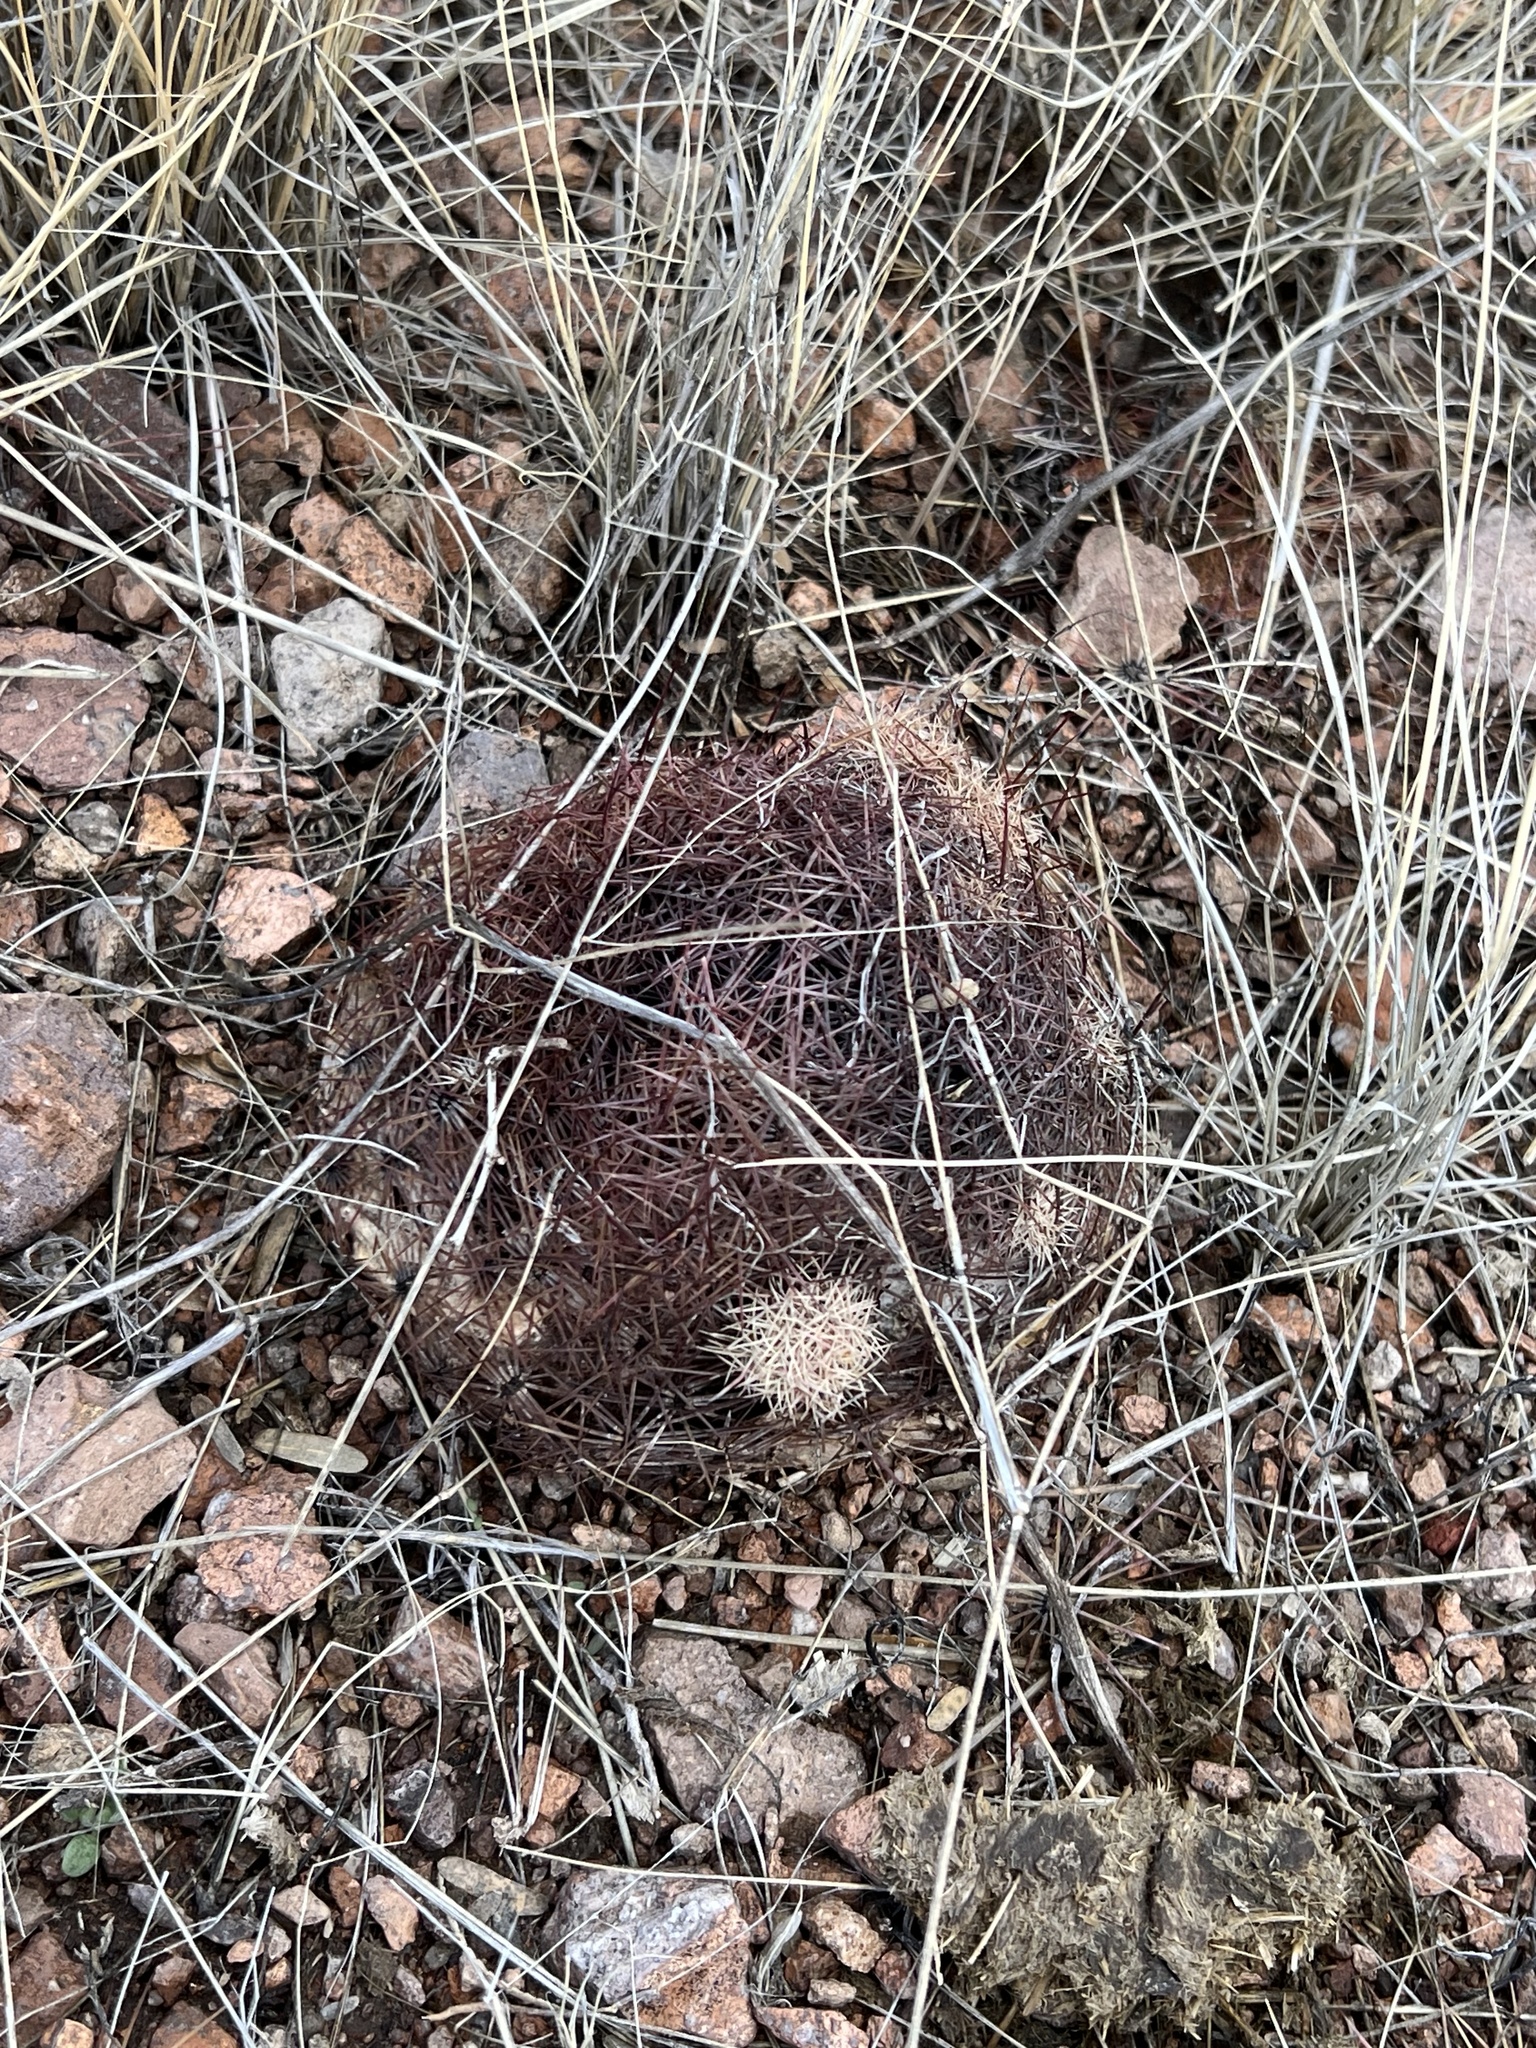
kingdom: Plantae
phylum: Tracheophyta
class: Magnoliopsida
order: Caryophyllales
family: Cactaceae
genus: Sclerocactus
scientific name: Sclerocactus johnsonii
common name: Eight-spine fishhook cactus
